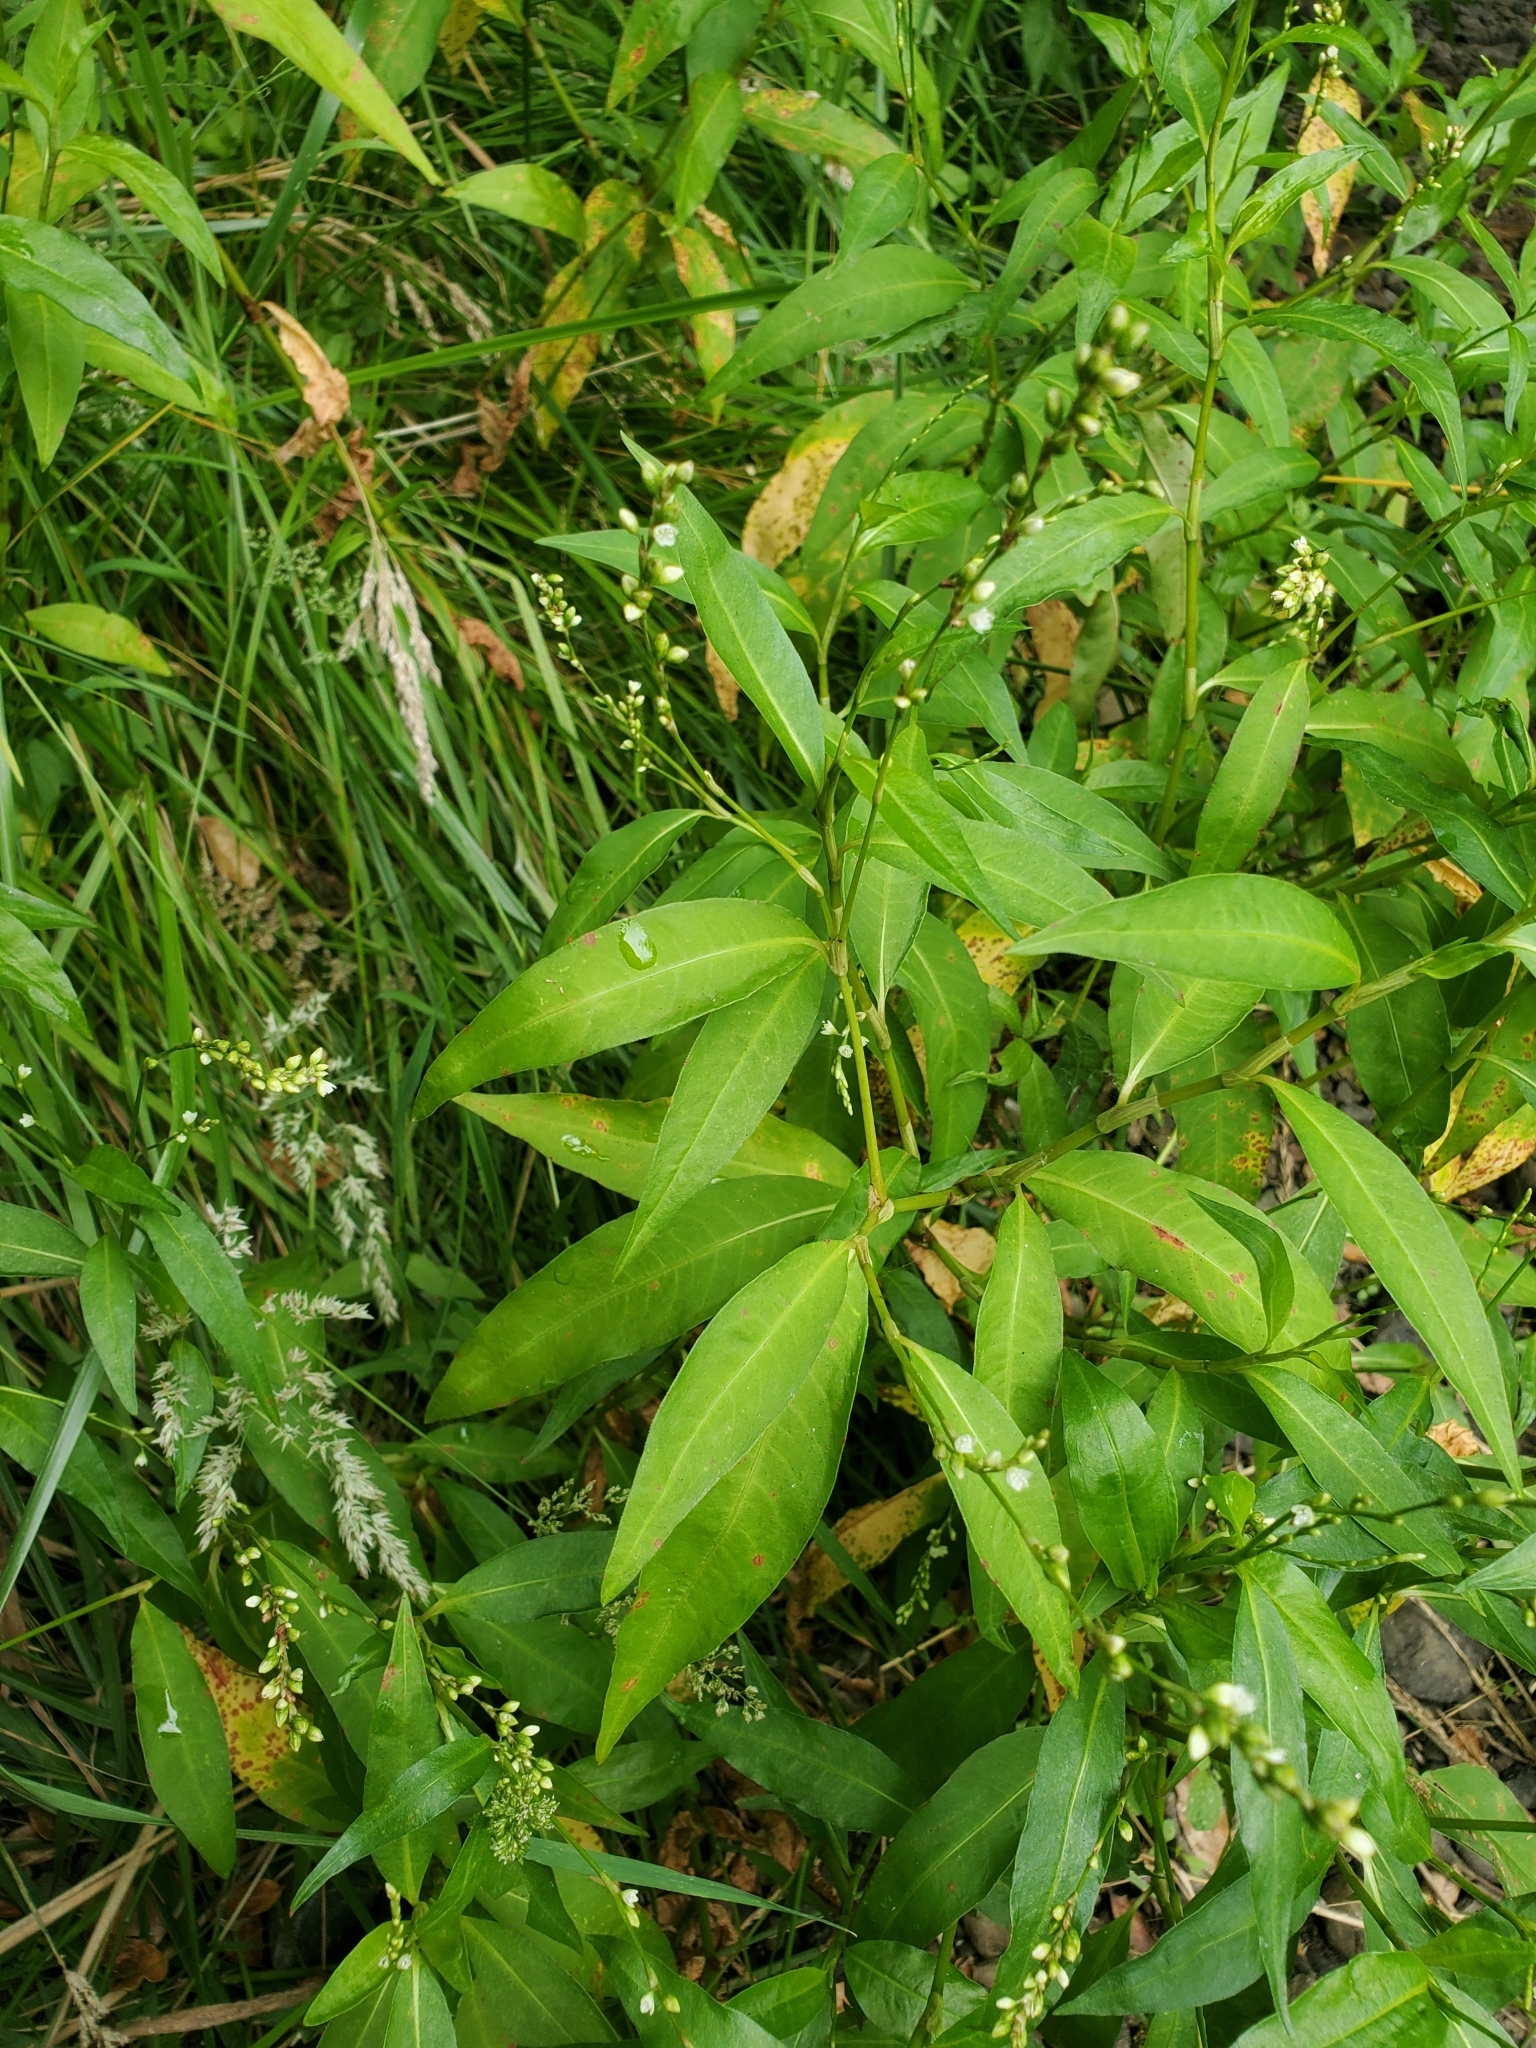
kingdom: Plantae
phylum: Tracheophyta
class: Magnoliopsida
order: Caryophyllales
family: Polygonaceae
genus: Persicaria
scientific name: Persicaria punctata
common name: Dotted smartweed
